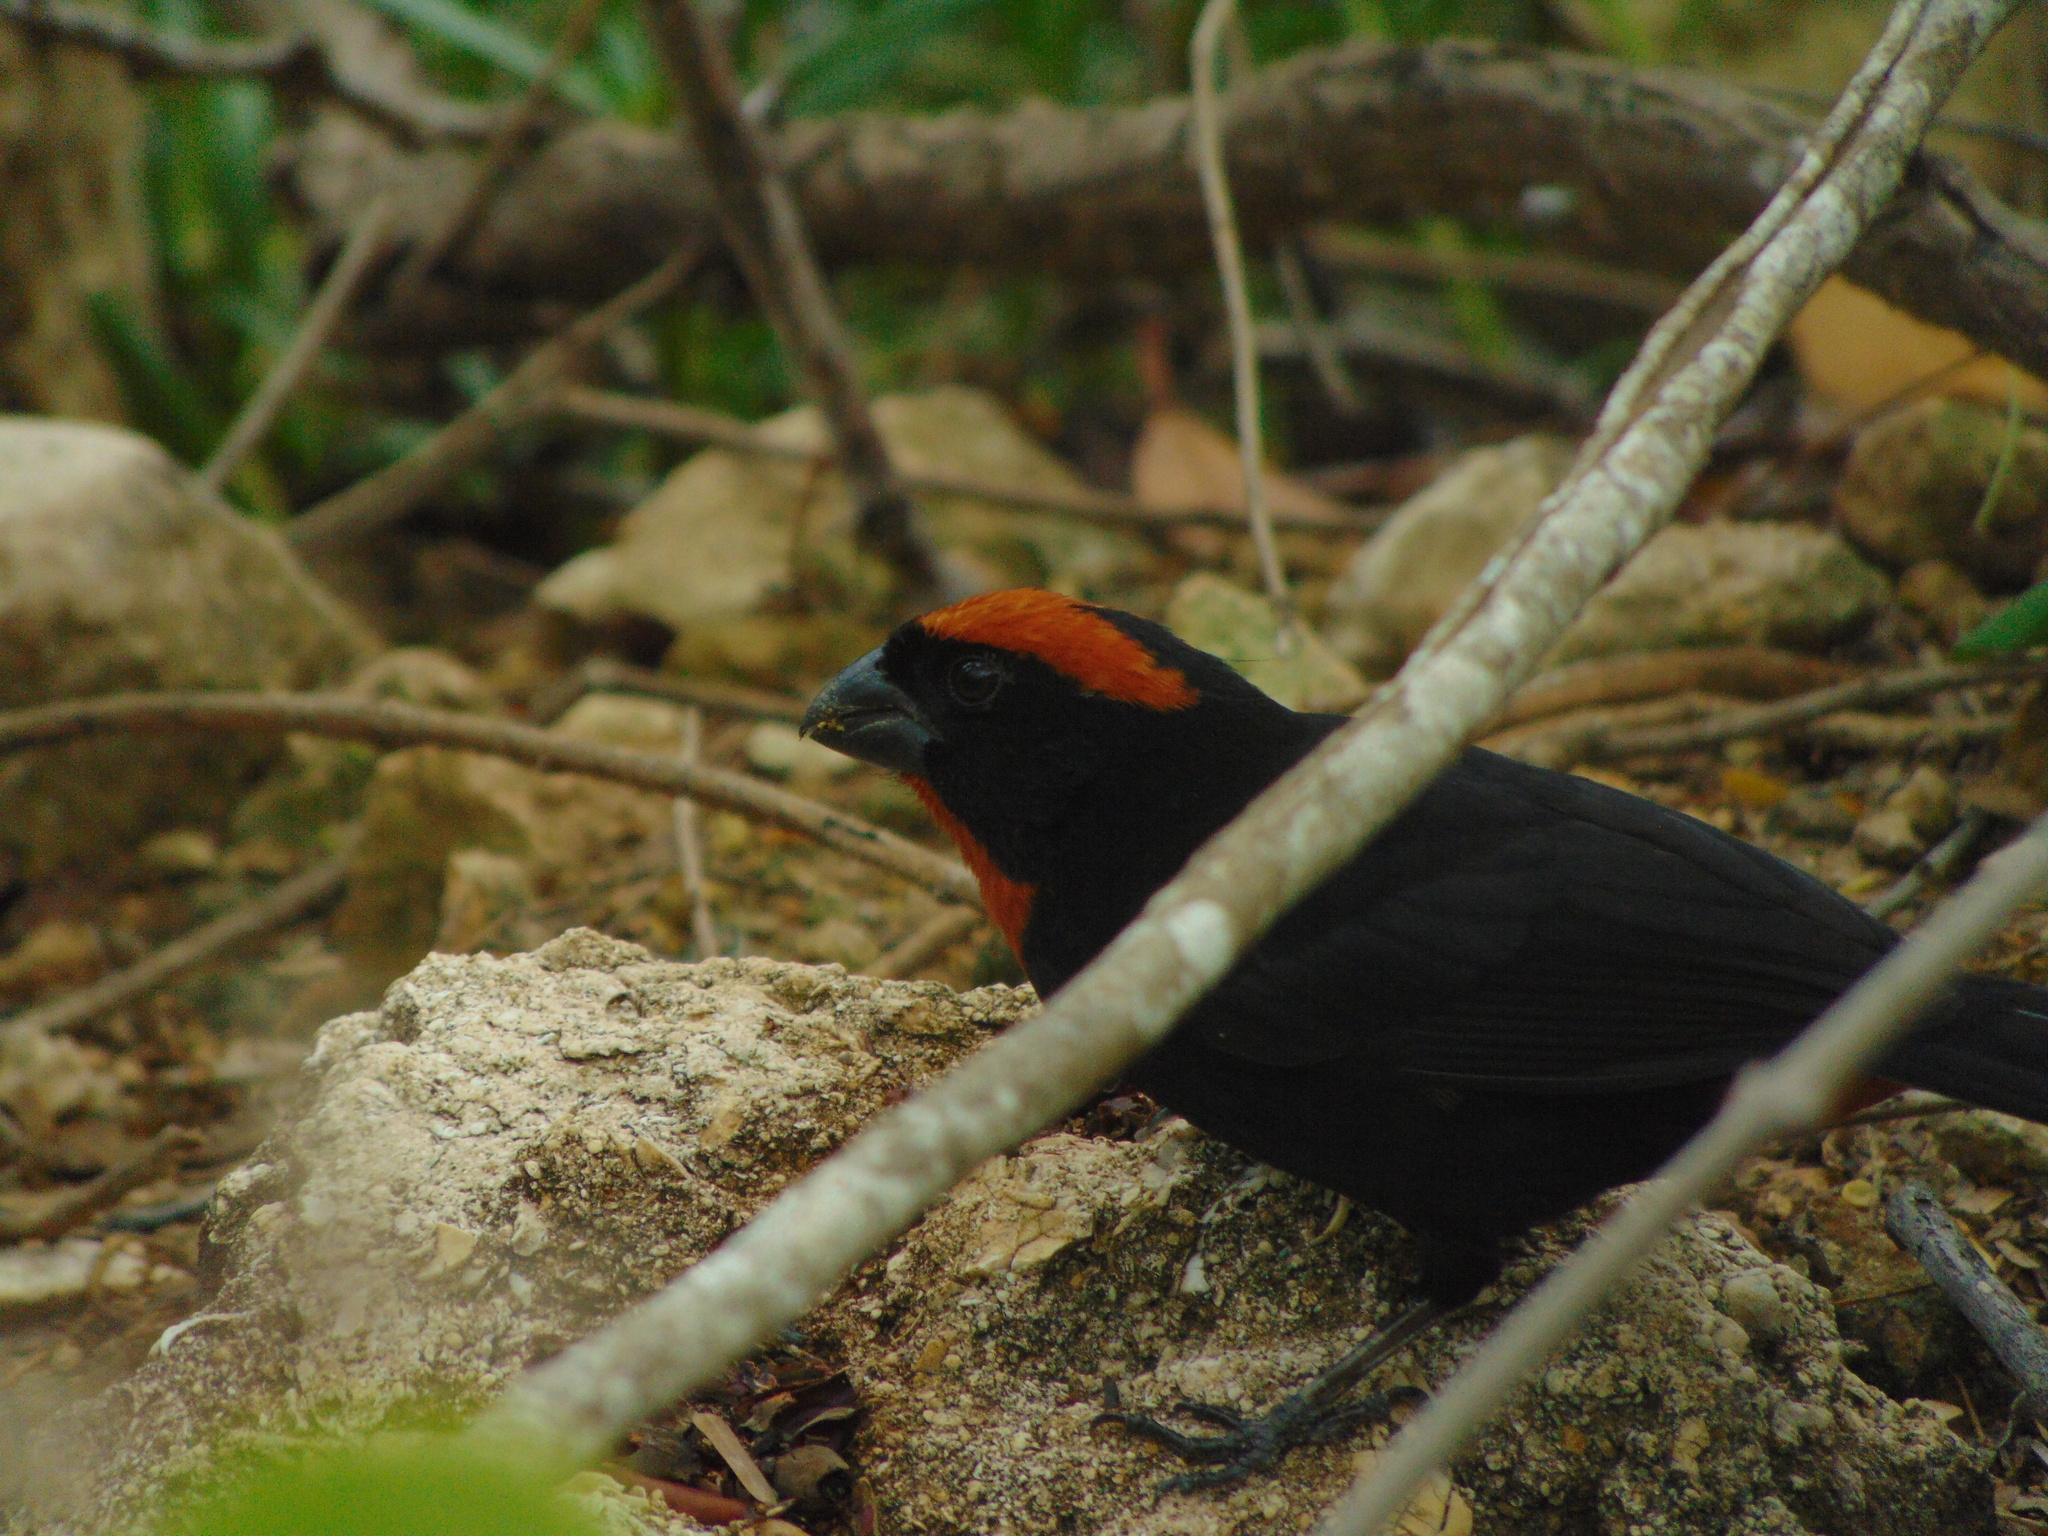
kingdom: Animalia
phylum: Chordata
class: Aves
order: Passeriformes
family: Thraupidae
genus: Melopyrrha
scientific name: Melopyrrha portoricensis
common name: Puerto rican bullfinch
